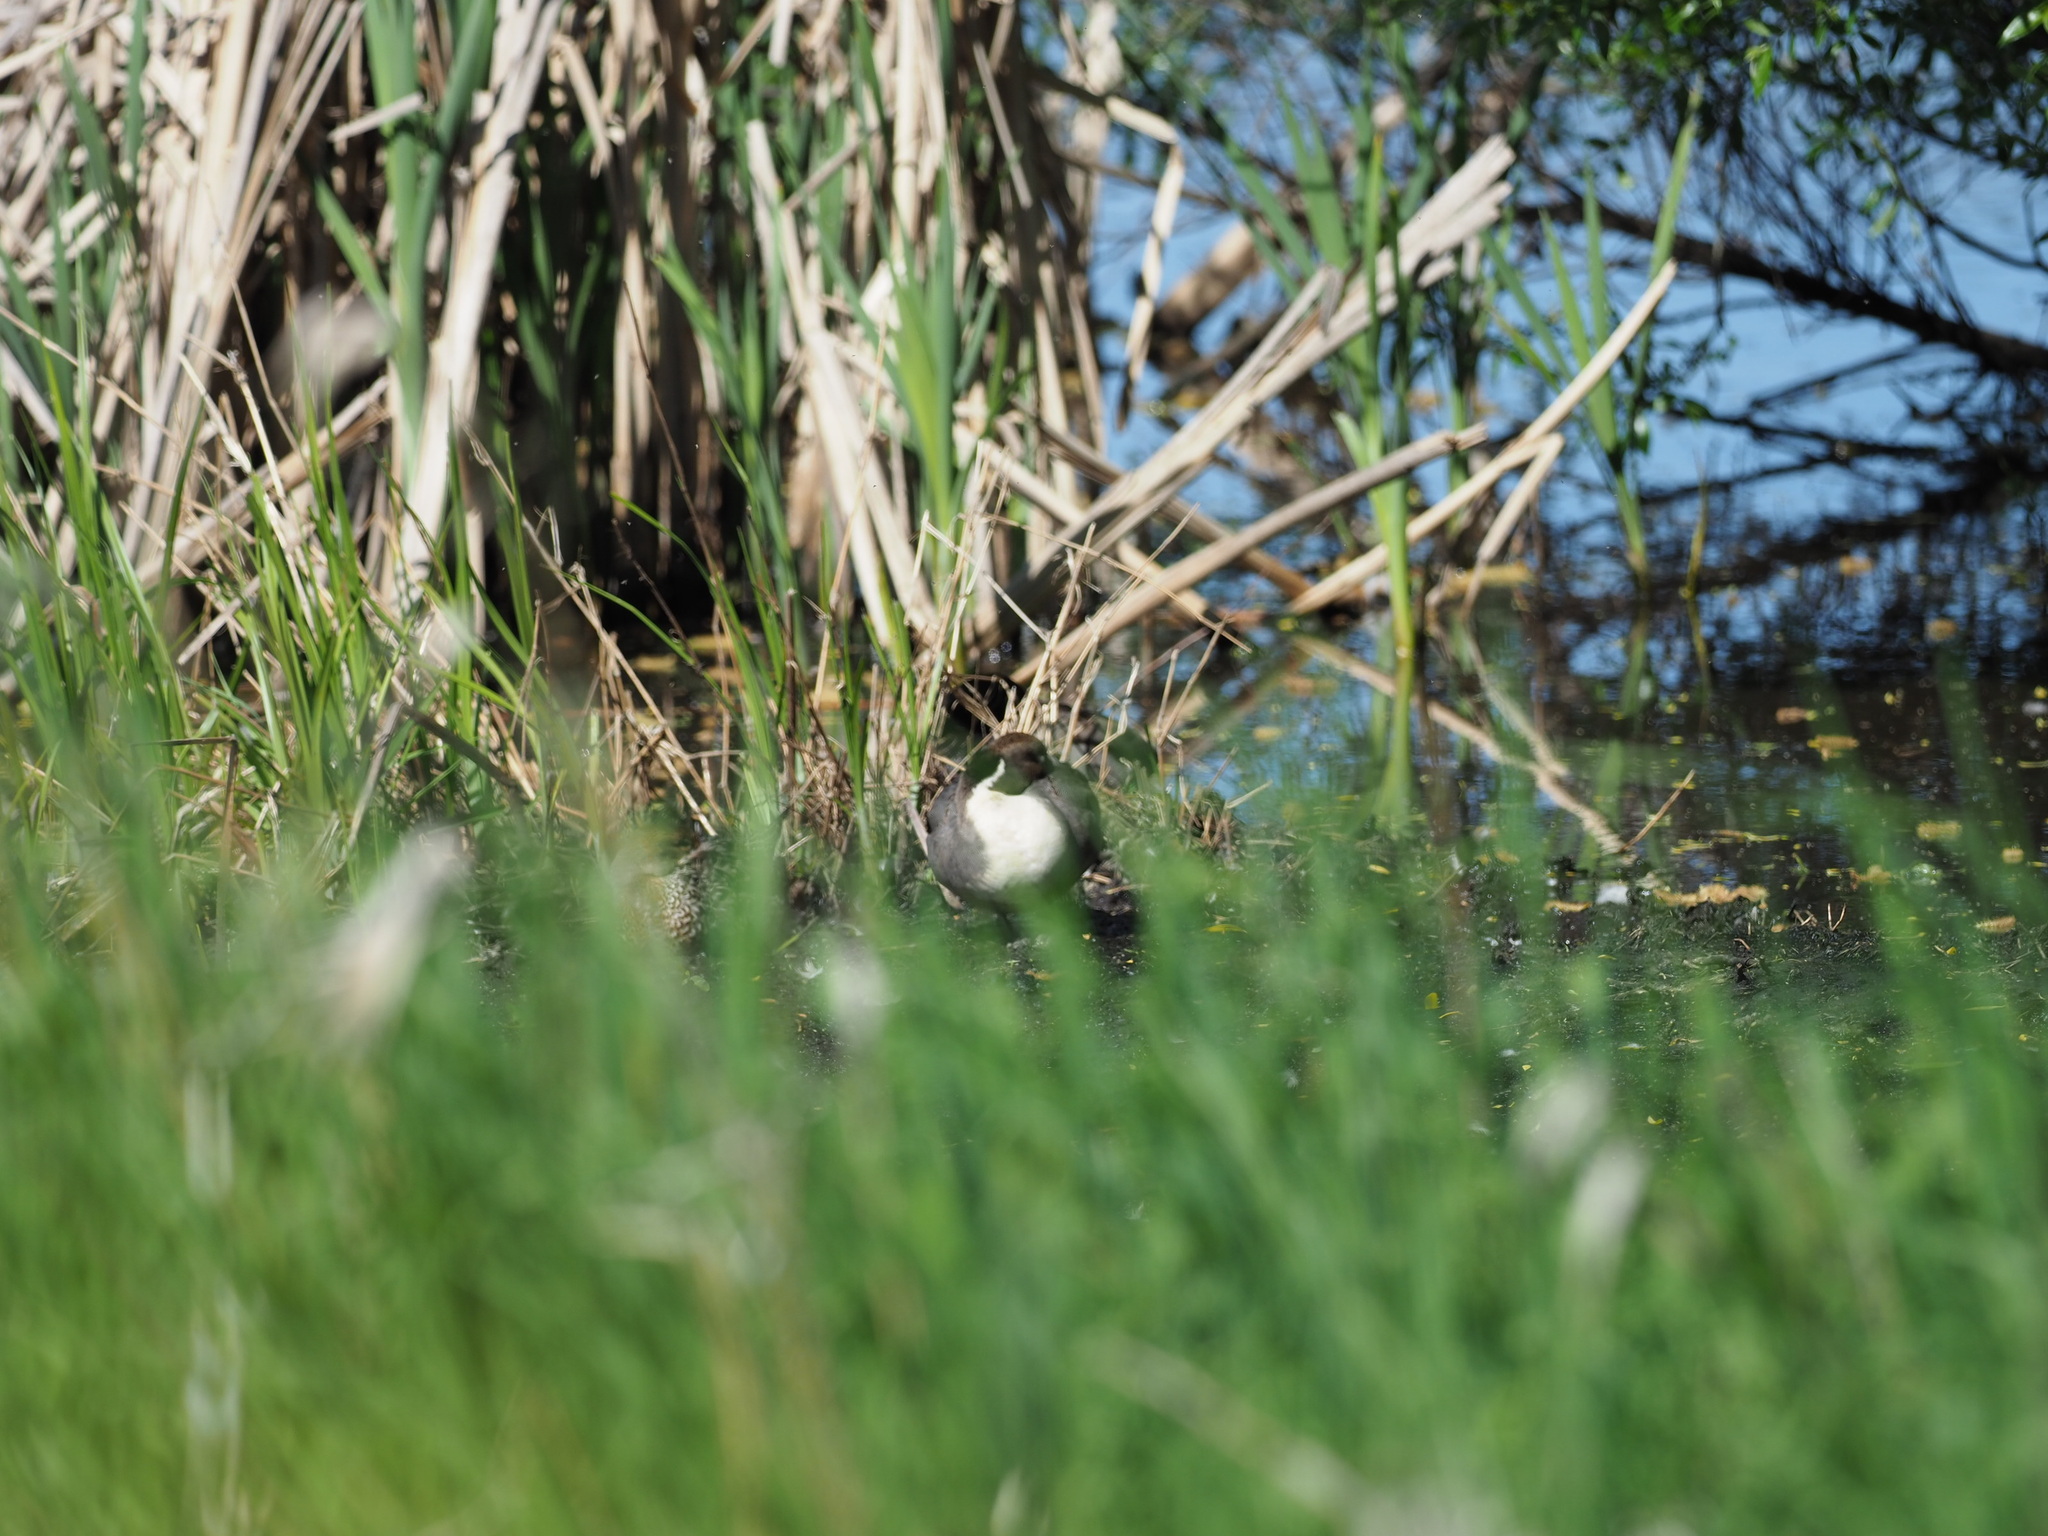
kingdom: Animalia
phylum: Chordata
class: Aves
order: Anseriformes
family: Anatidae
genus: Anas
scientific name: Anas acuta
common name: Northern pintail
